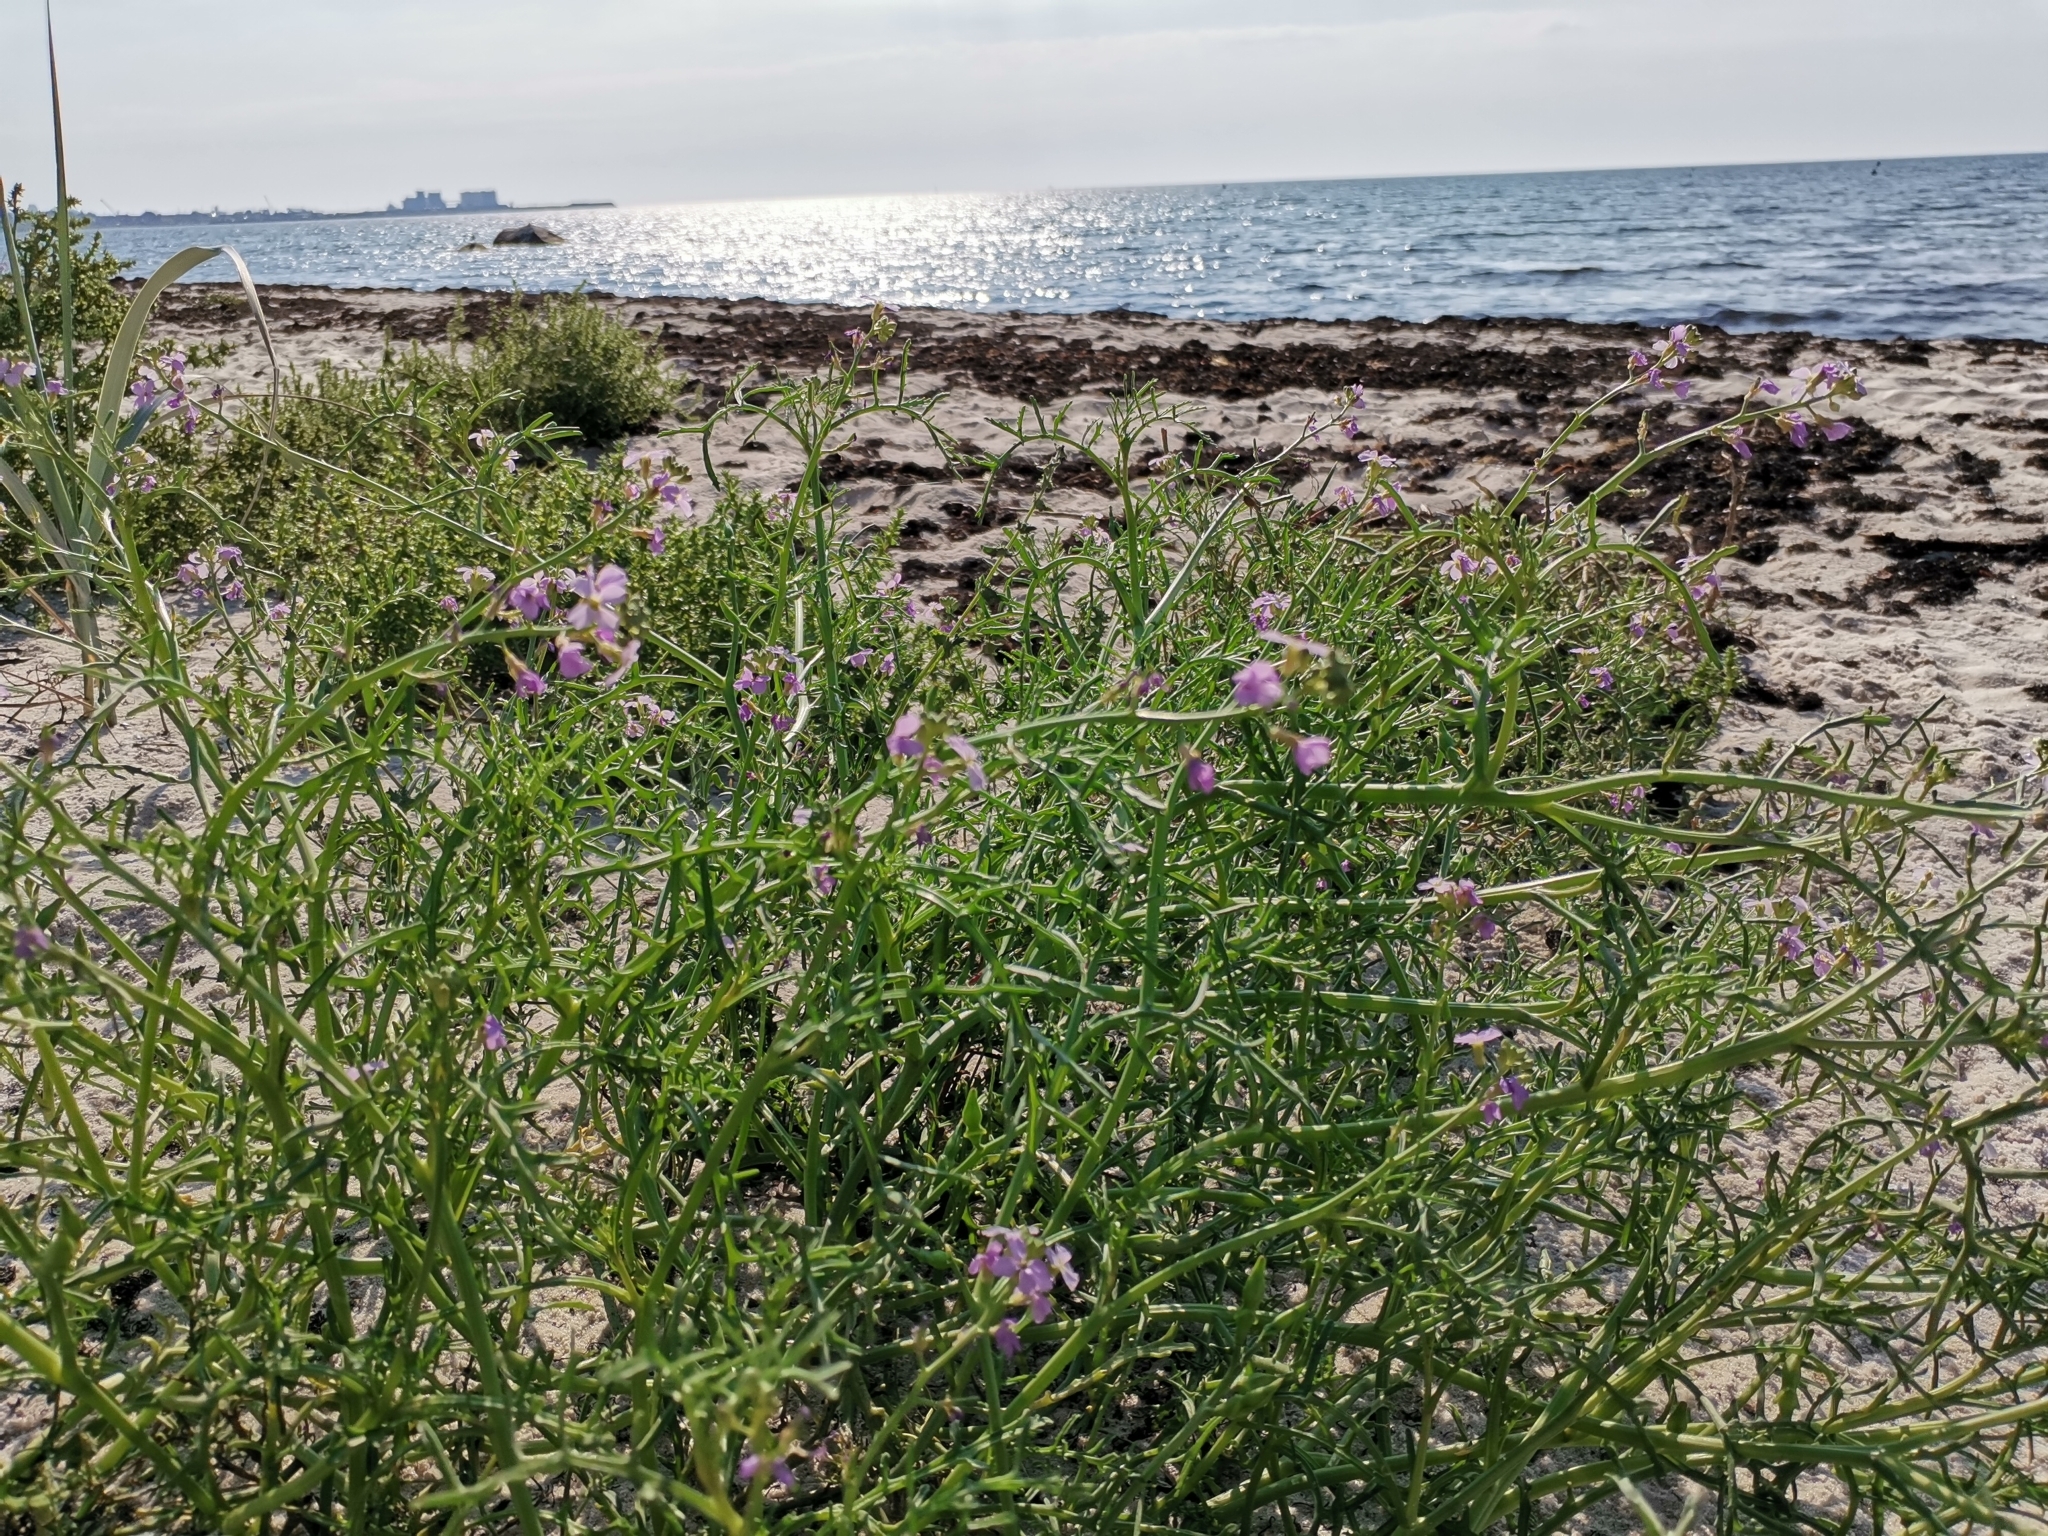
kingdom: Plantae
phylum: Tracheophyta
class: Magnoliopsida
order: Brassicales
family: Brassicaceae
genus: Cakile
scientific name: Cakile maritima
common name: Sea rocket
